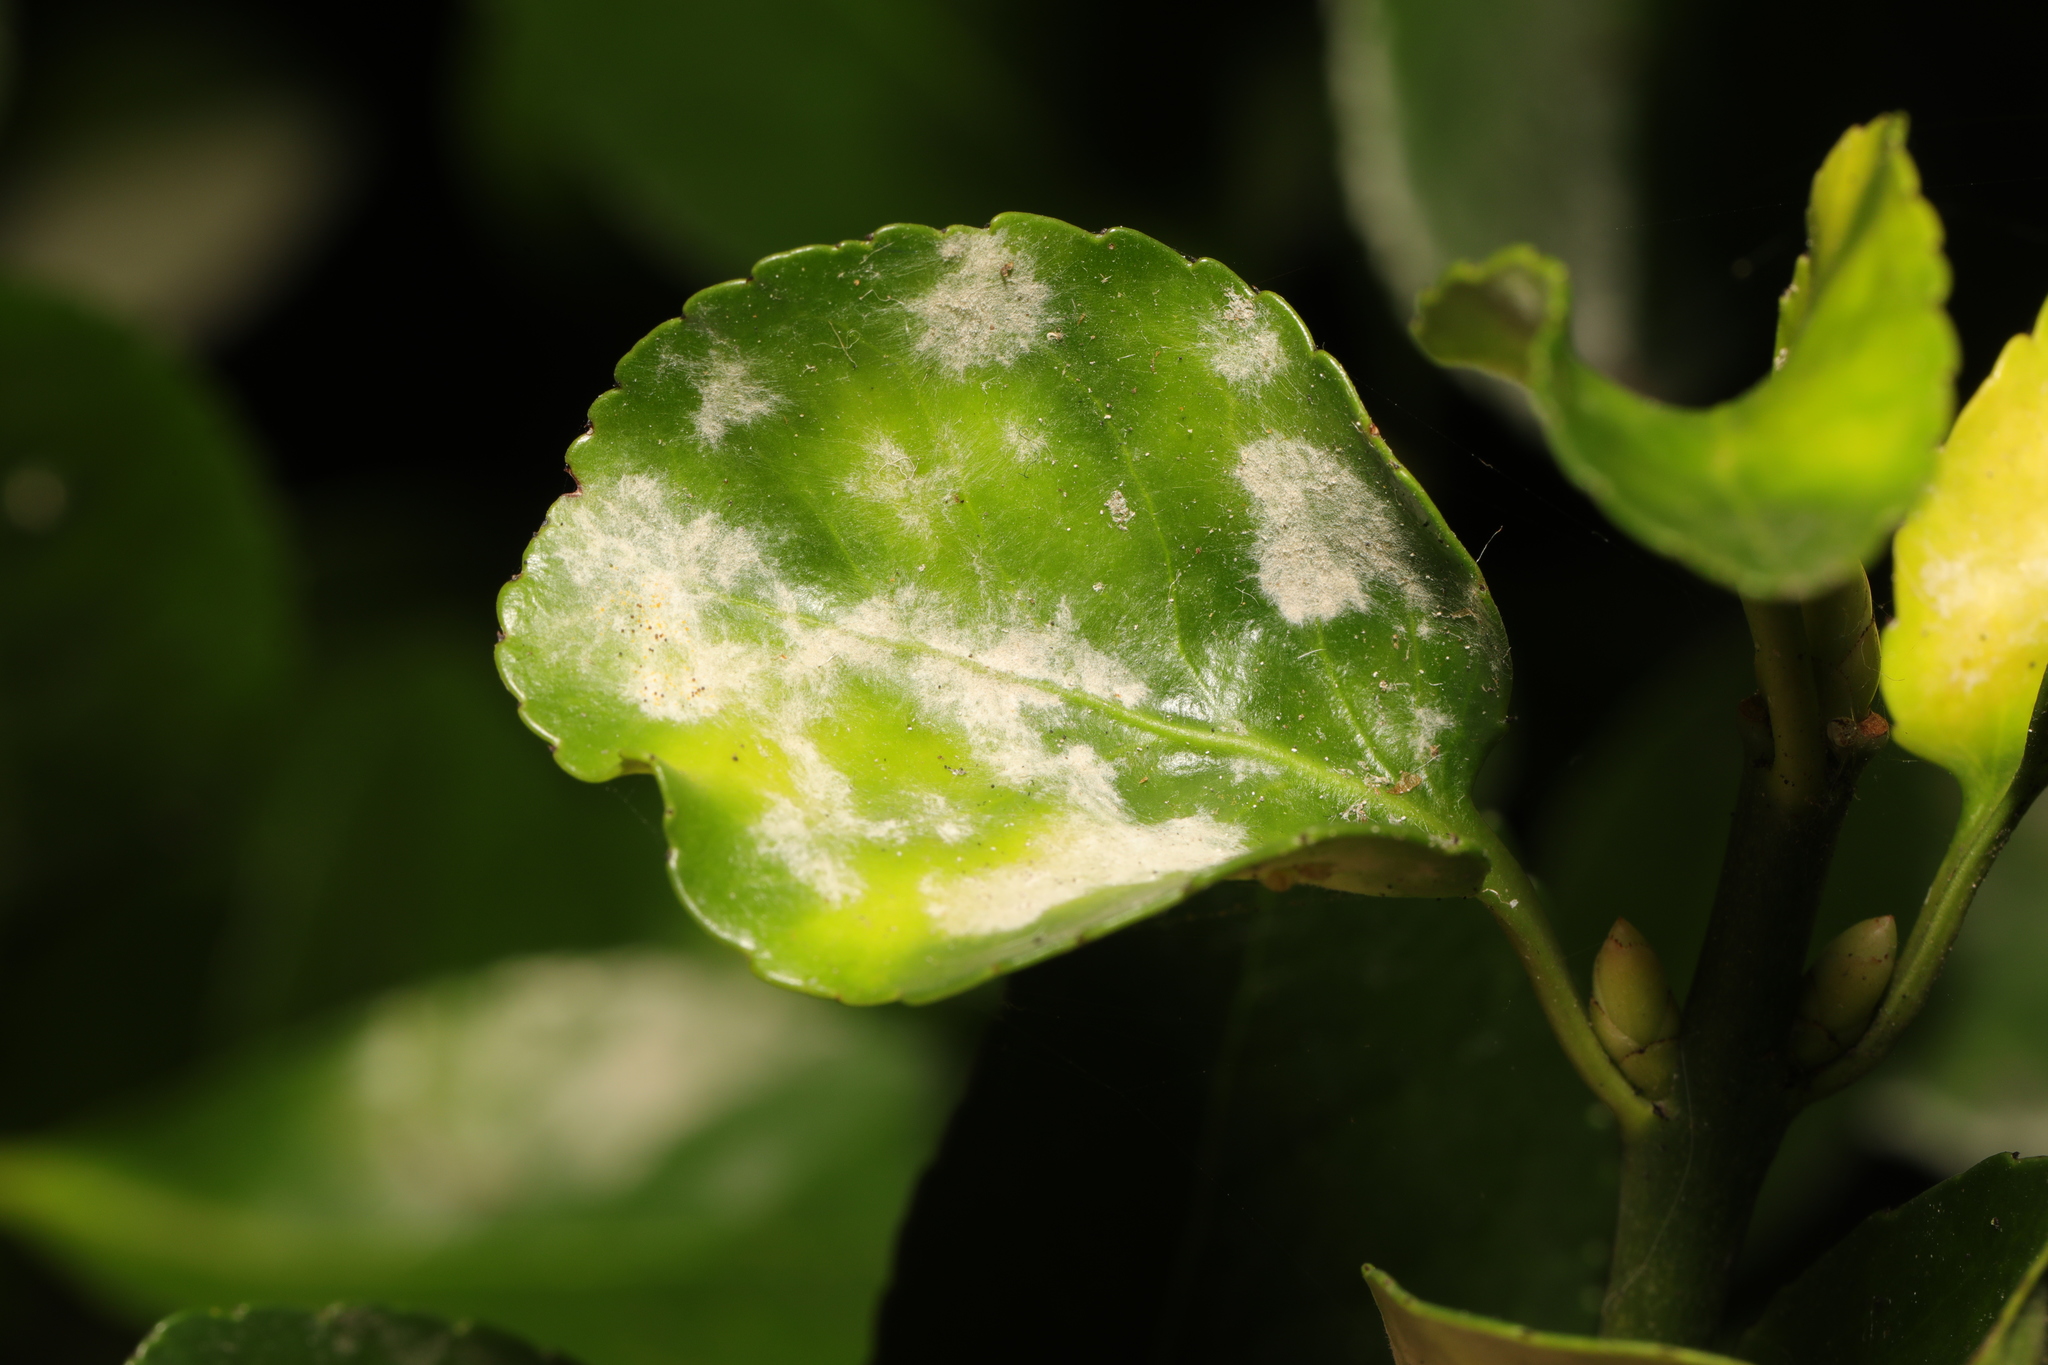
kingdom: Fungi
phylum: Ascomycota
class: Leotiomycetes
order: Helotiales
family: Erysiphaceae
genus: Erysiphe
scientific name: Erysiphe euonymicola
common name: Spindletree mildew
